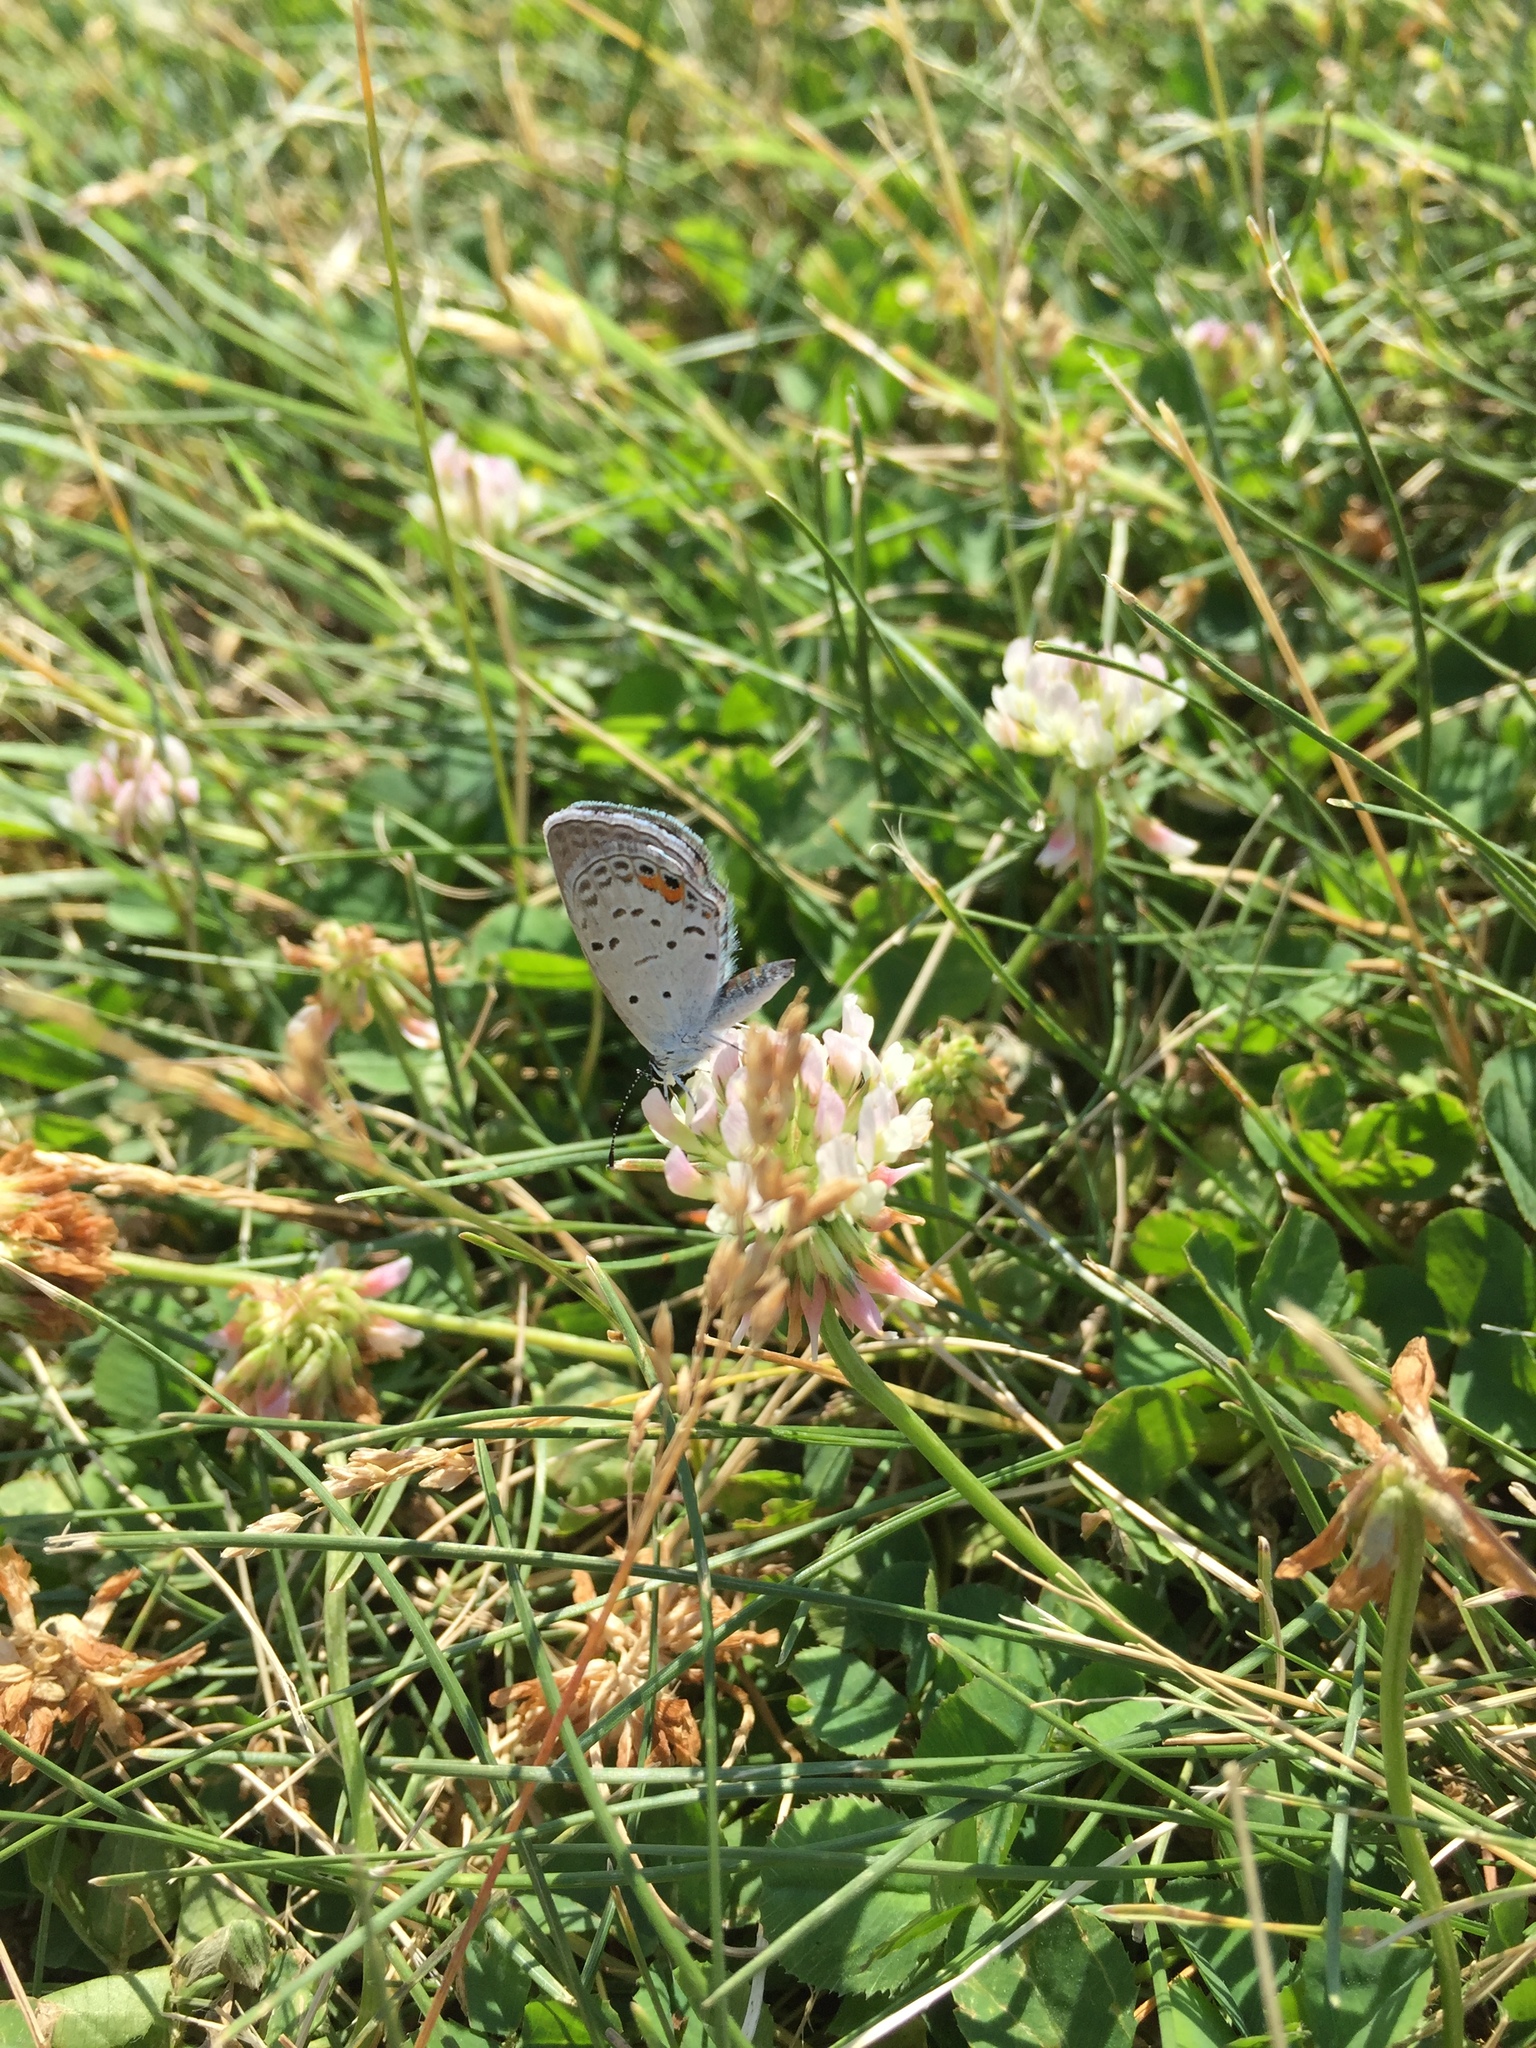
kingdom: Animalia
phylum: Arthropoda
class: Insecta
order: Lepidoptera
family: Lycaenidae
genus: Elkalyce
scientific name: Elkalyce comyntas
